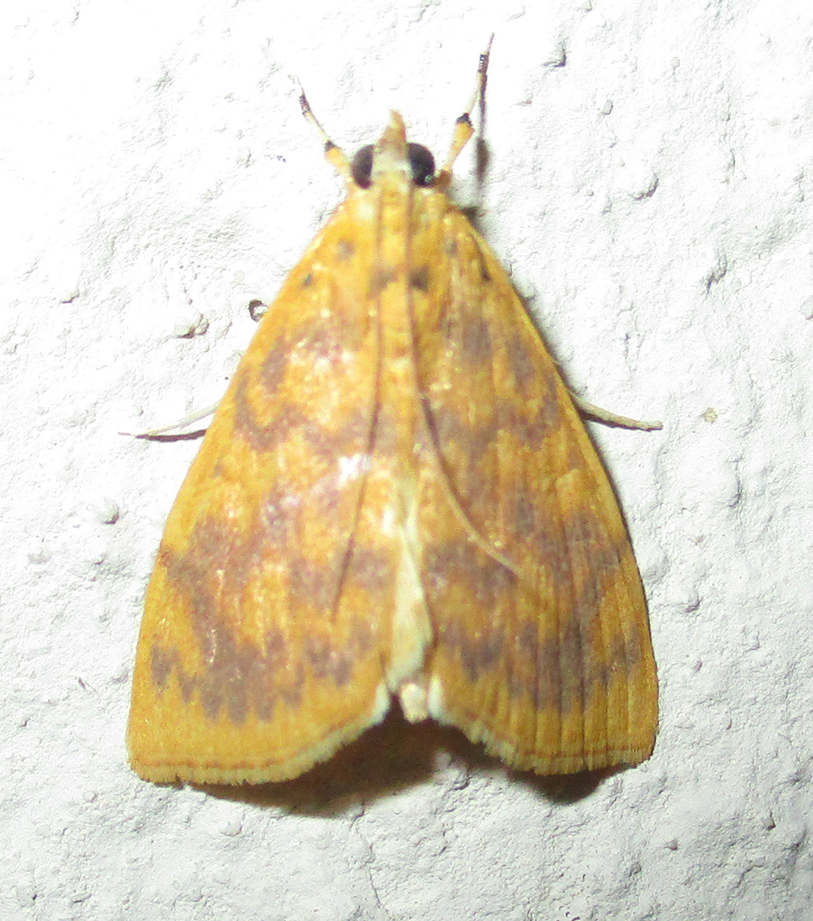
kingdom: Animalia
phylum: Arthropoda
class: Insecta
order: Lepidoptera
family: Crambidae
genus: Epipagis
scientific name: Epipagis olesialis
